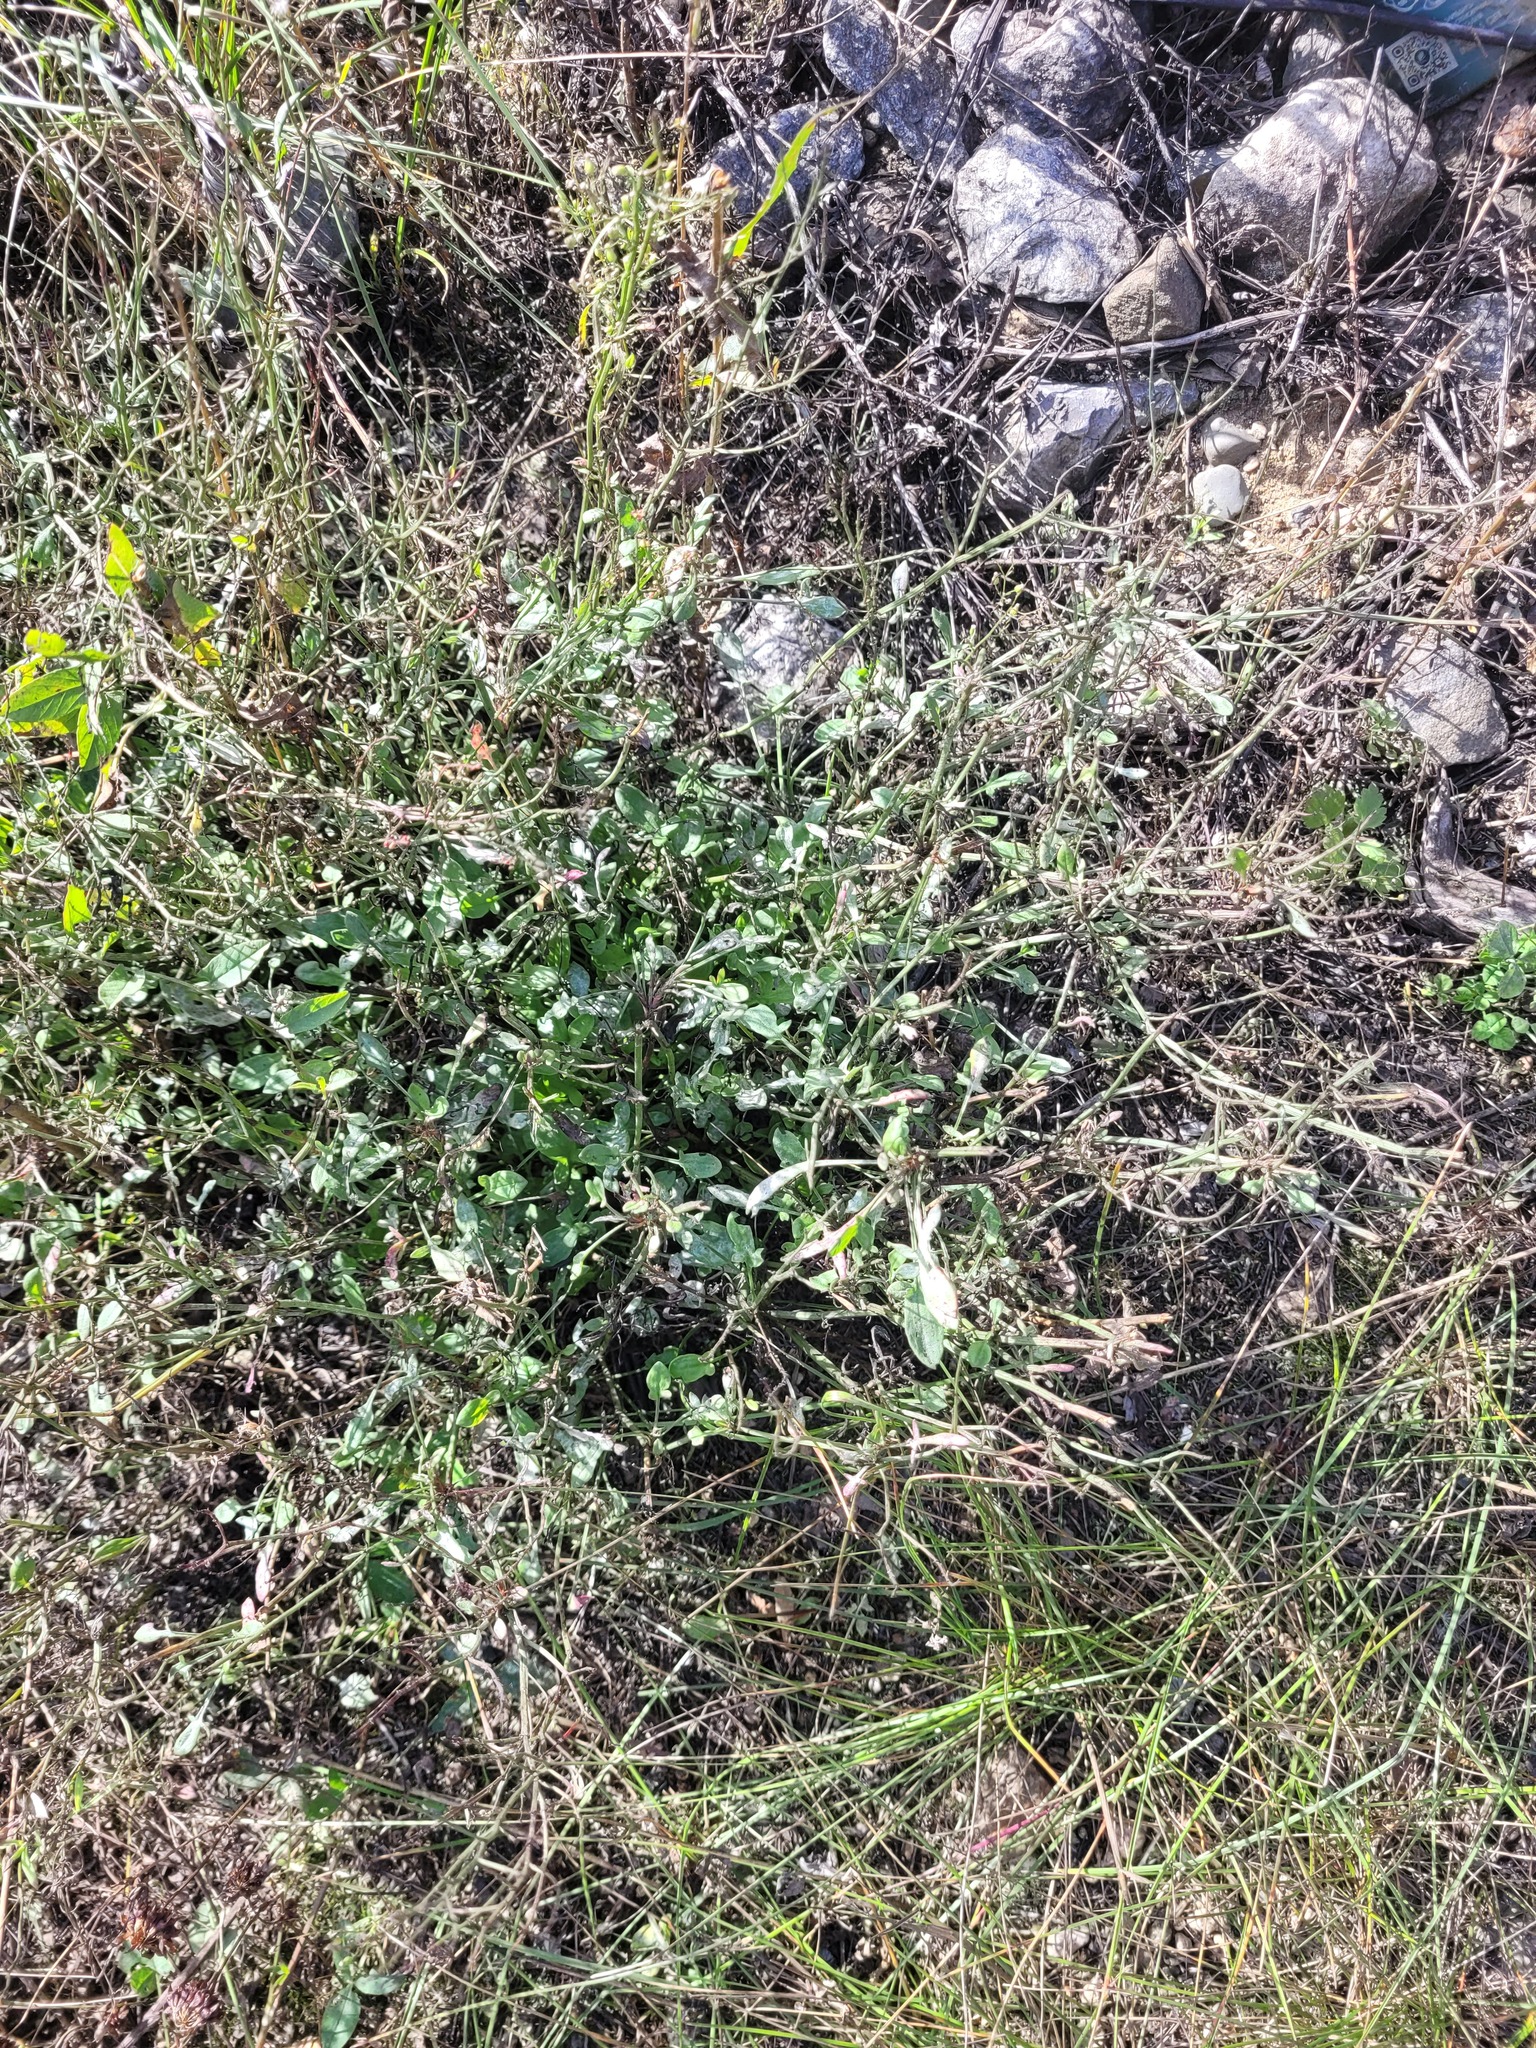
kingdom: Plantae
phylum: Tracheophyta
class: Magnoliopsida
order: Caryophyllales
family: Polygonaceae
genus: Rumex
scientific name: Rumex acetosella
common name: Common sheep sorrel
